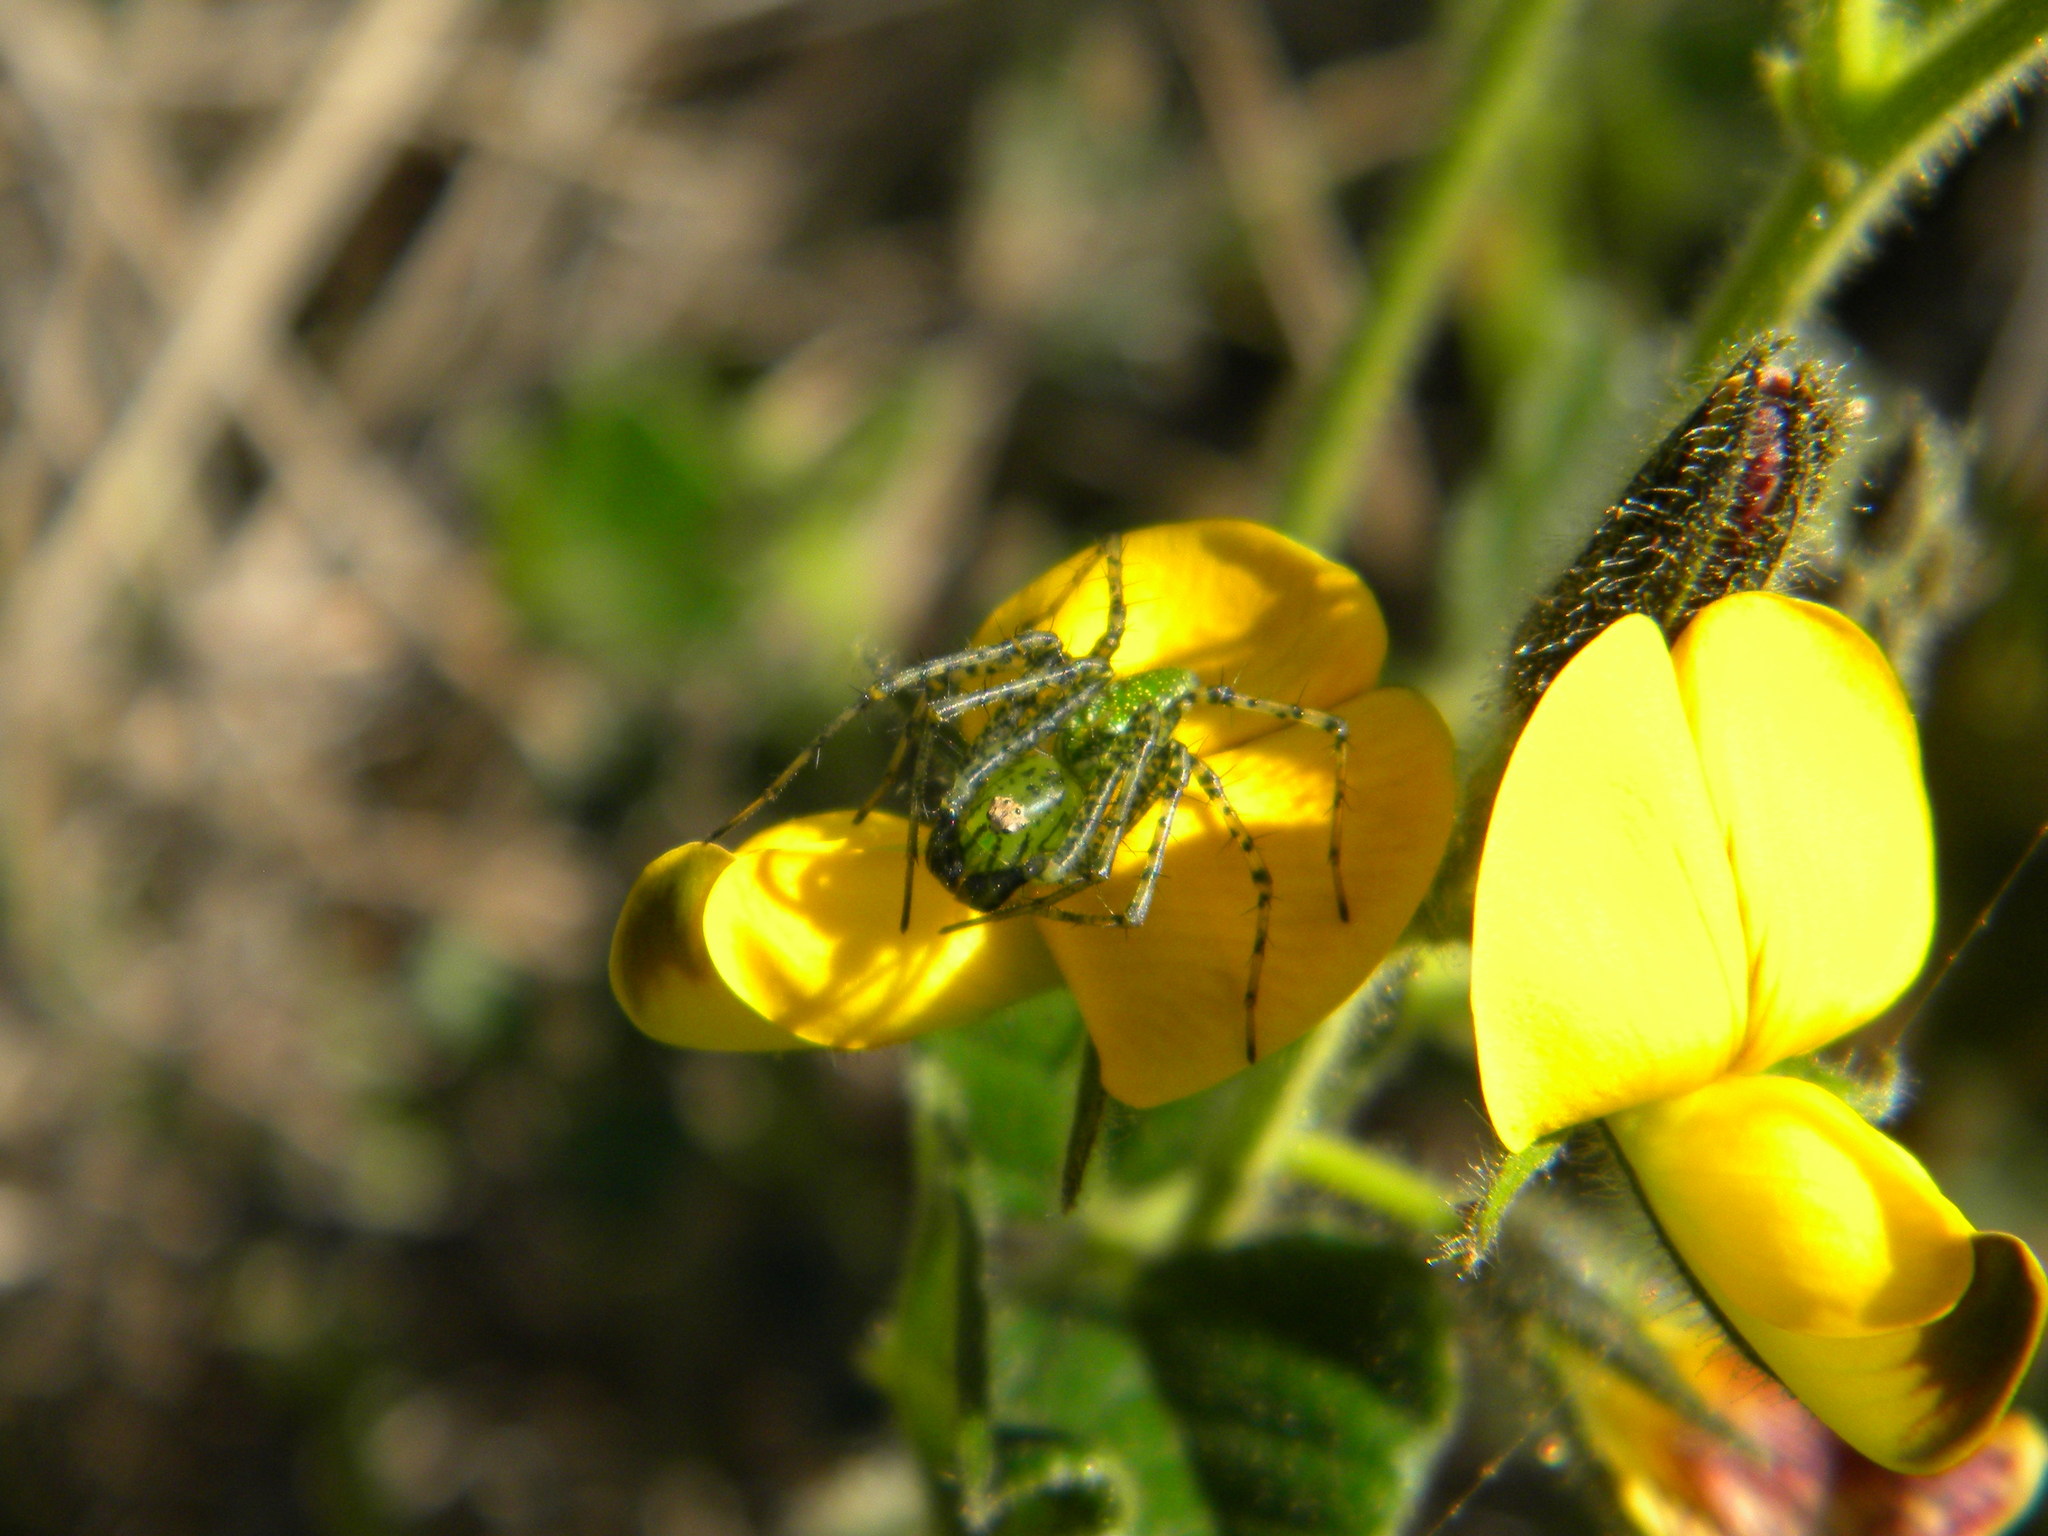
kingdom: Plantae
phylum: Tracheophyta
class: Magnoliopsida
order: Fabales
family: Fabaceae
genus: Bolusafra
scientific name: Bolusafra bituminosa
